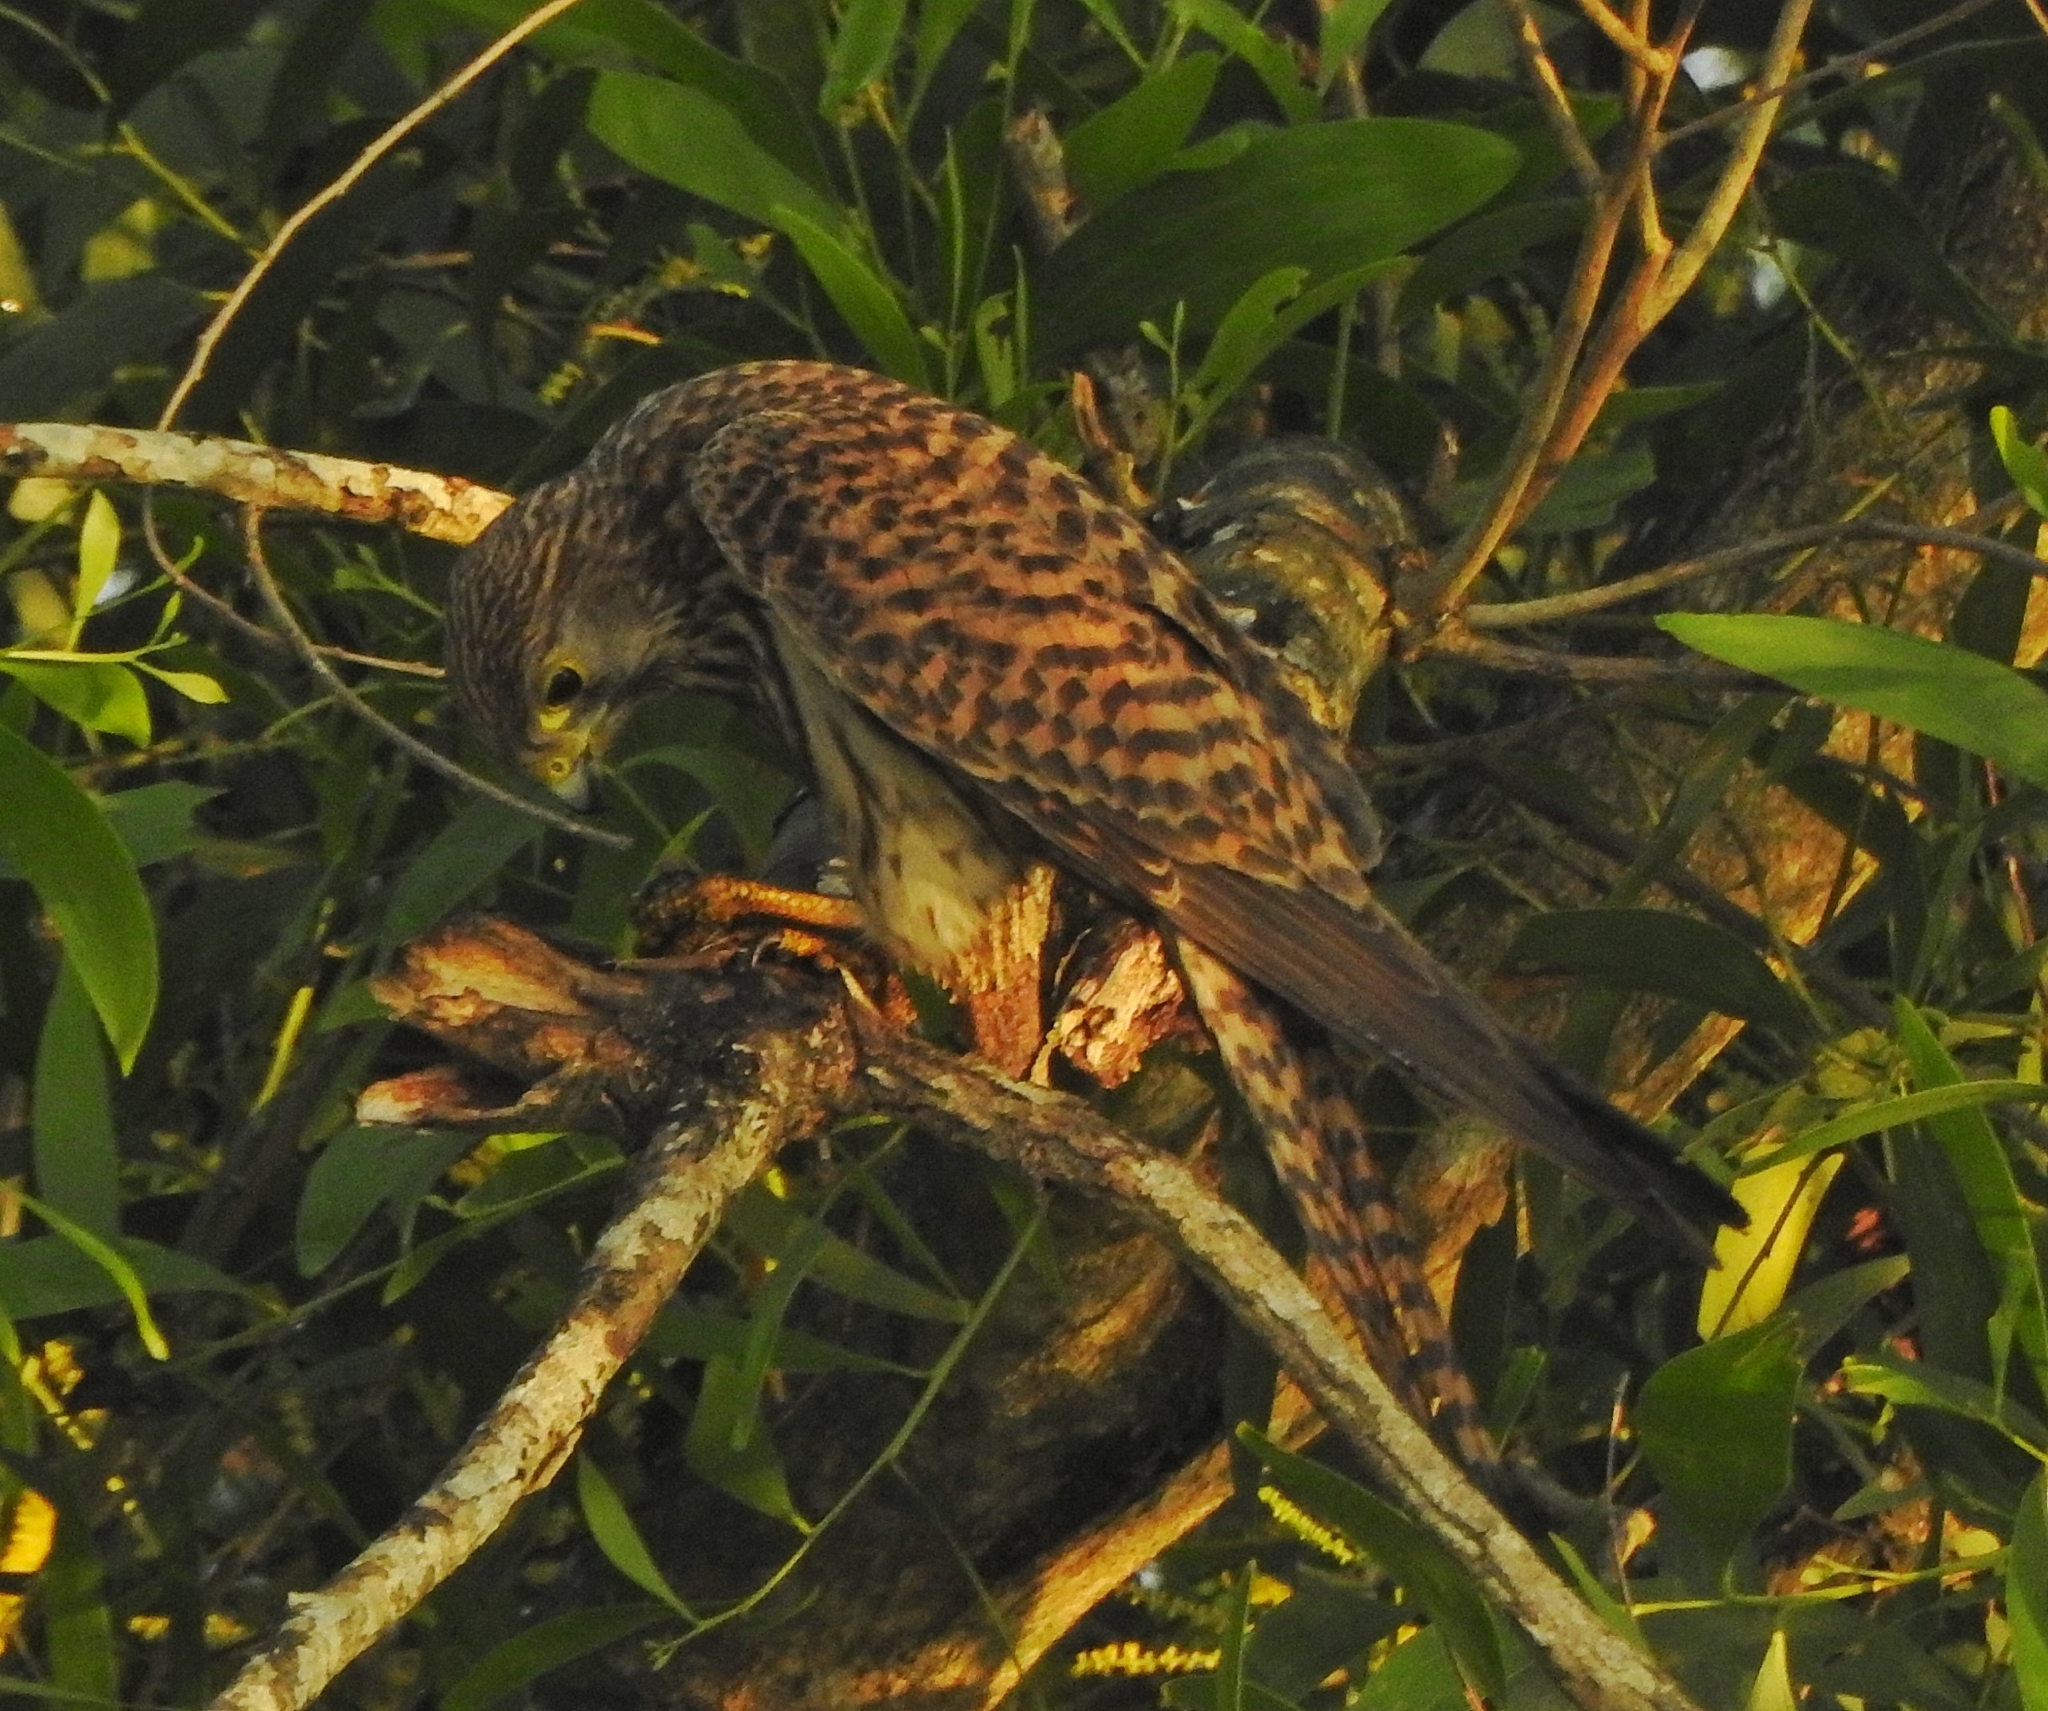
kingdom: Animalia
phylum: Chordata
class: Aves
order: Falconiformes
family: Falconidae
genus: Falco
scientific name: Falco tinnunculus
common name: Common kestrel
